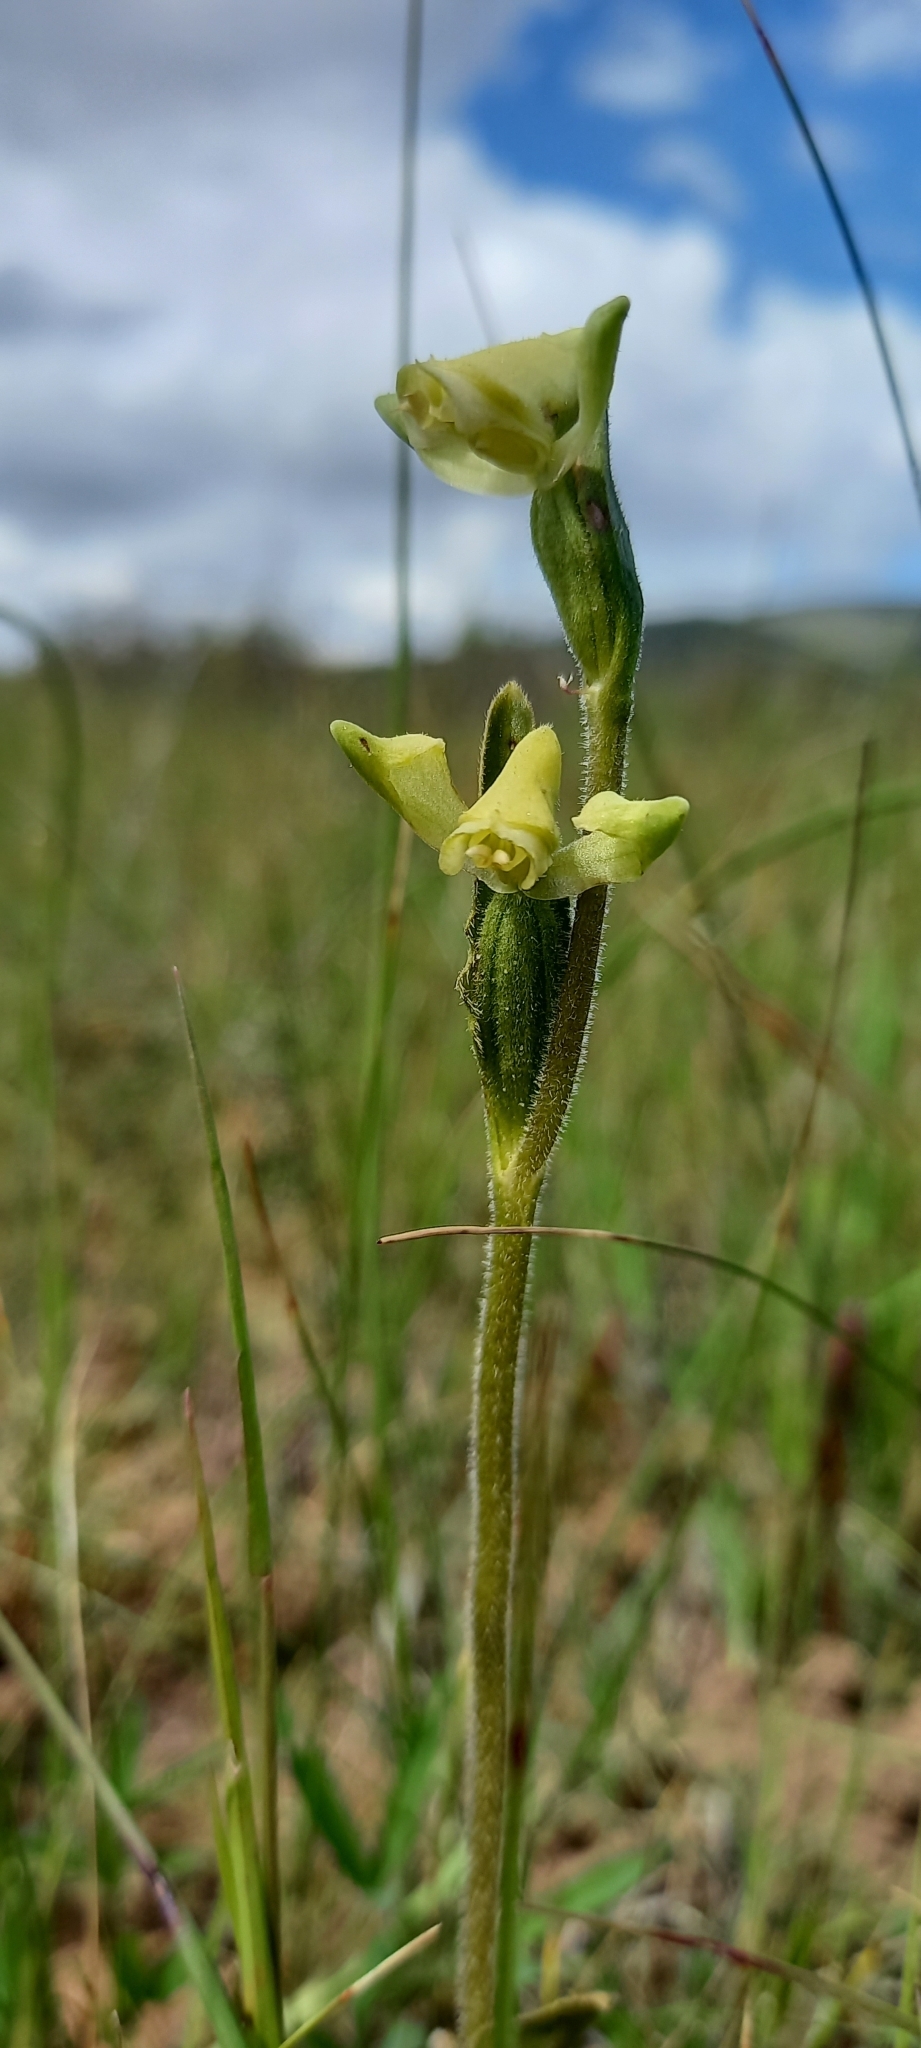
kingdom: Plantae
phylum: Tracheophyta
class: Liliopsida
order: Asparagales
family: Orchidaceae
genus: Disperis
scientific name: Disperis villosa
